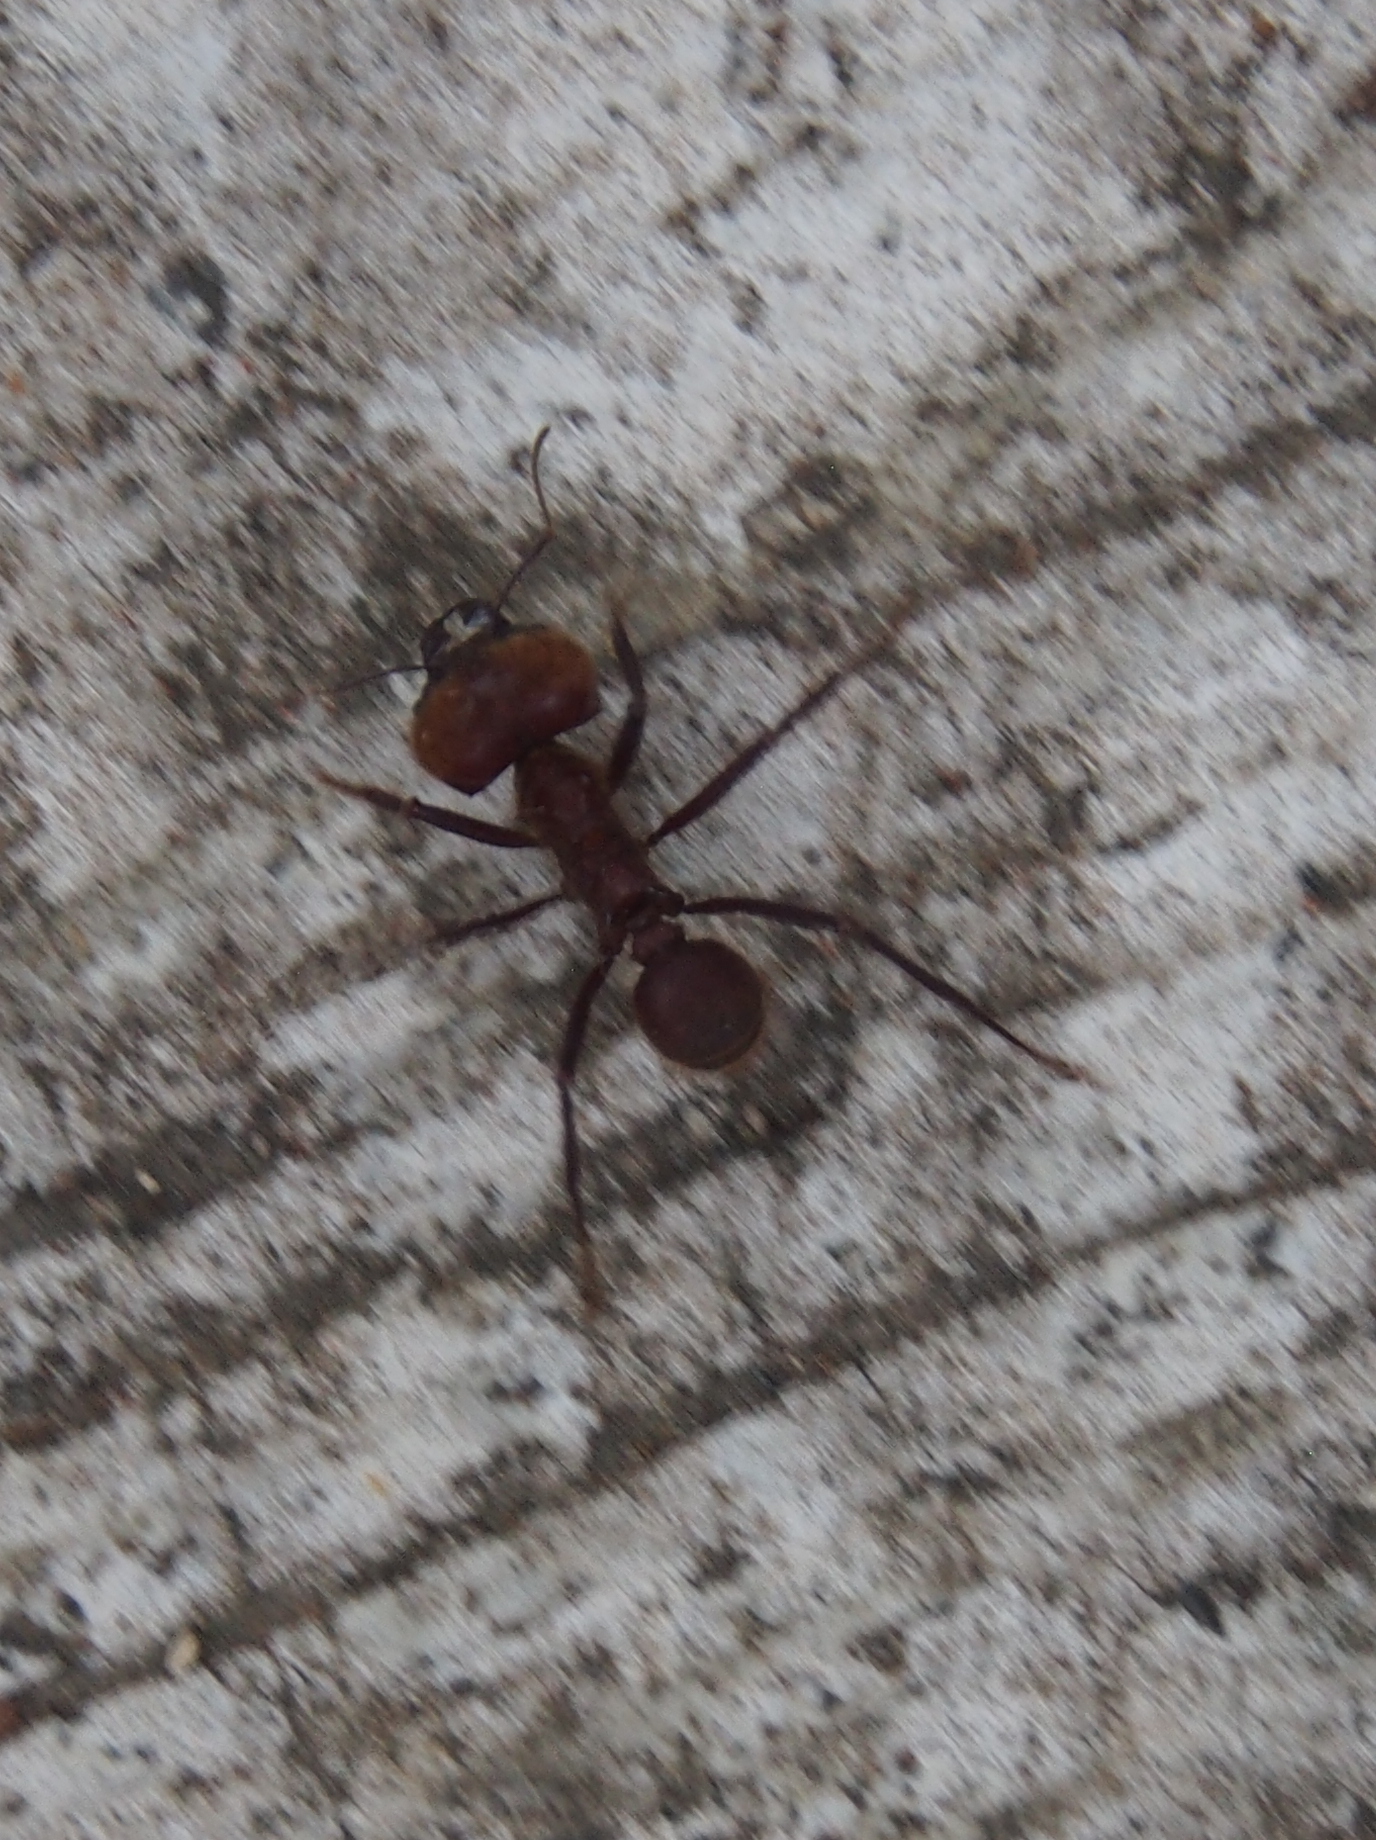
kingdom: Animalia
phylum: Arthropoda
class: Insecta
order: Hymenoptera
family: Formicidae
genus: Atta
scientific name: Atta cephalotes
